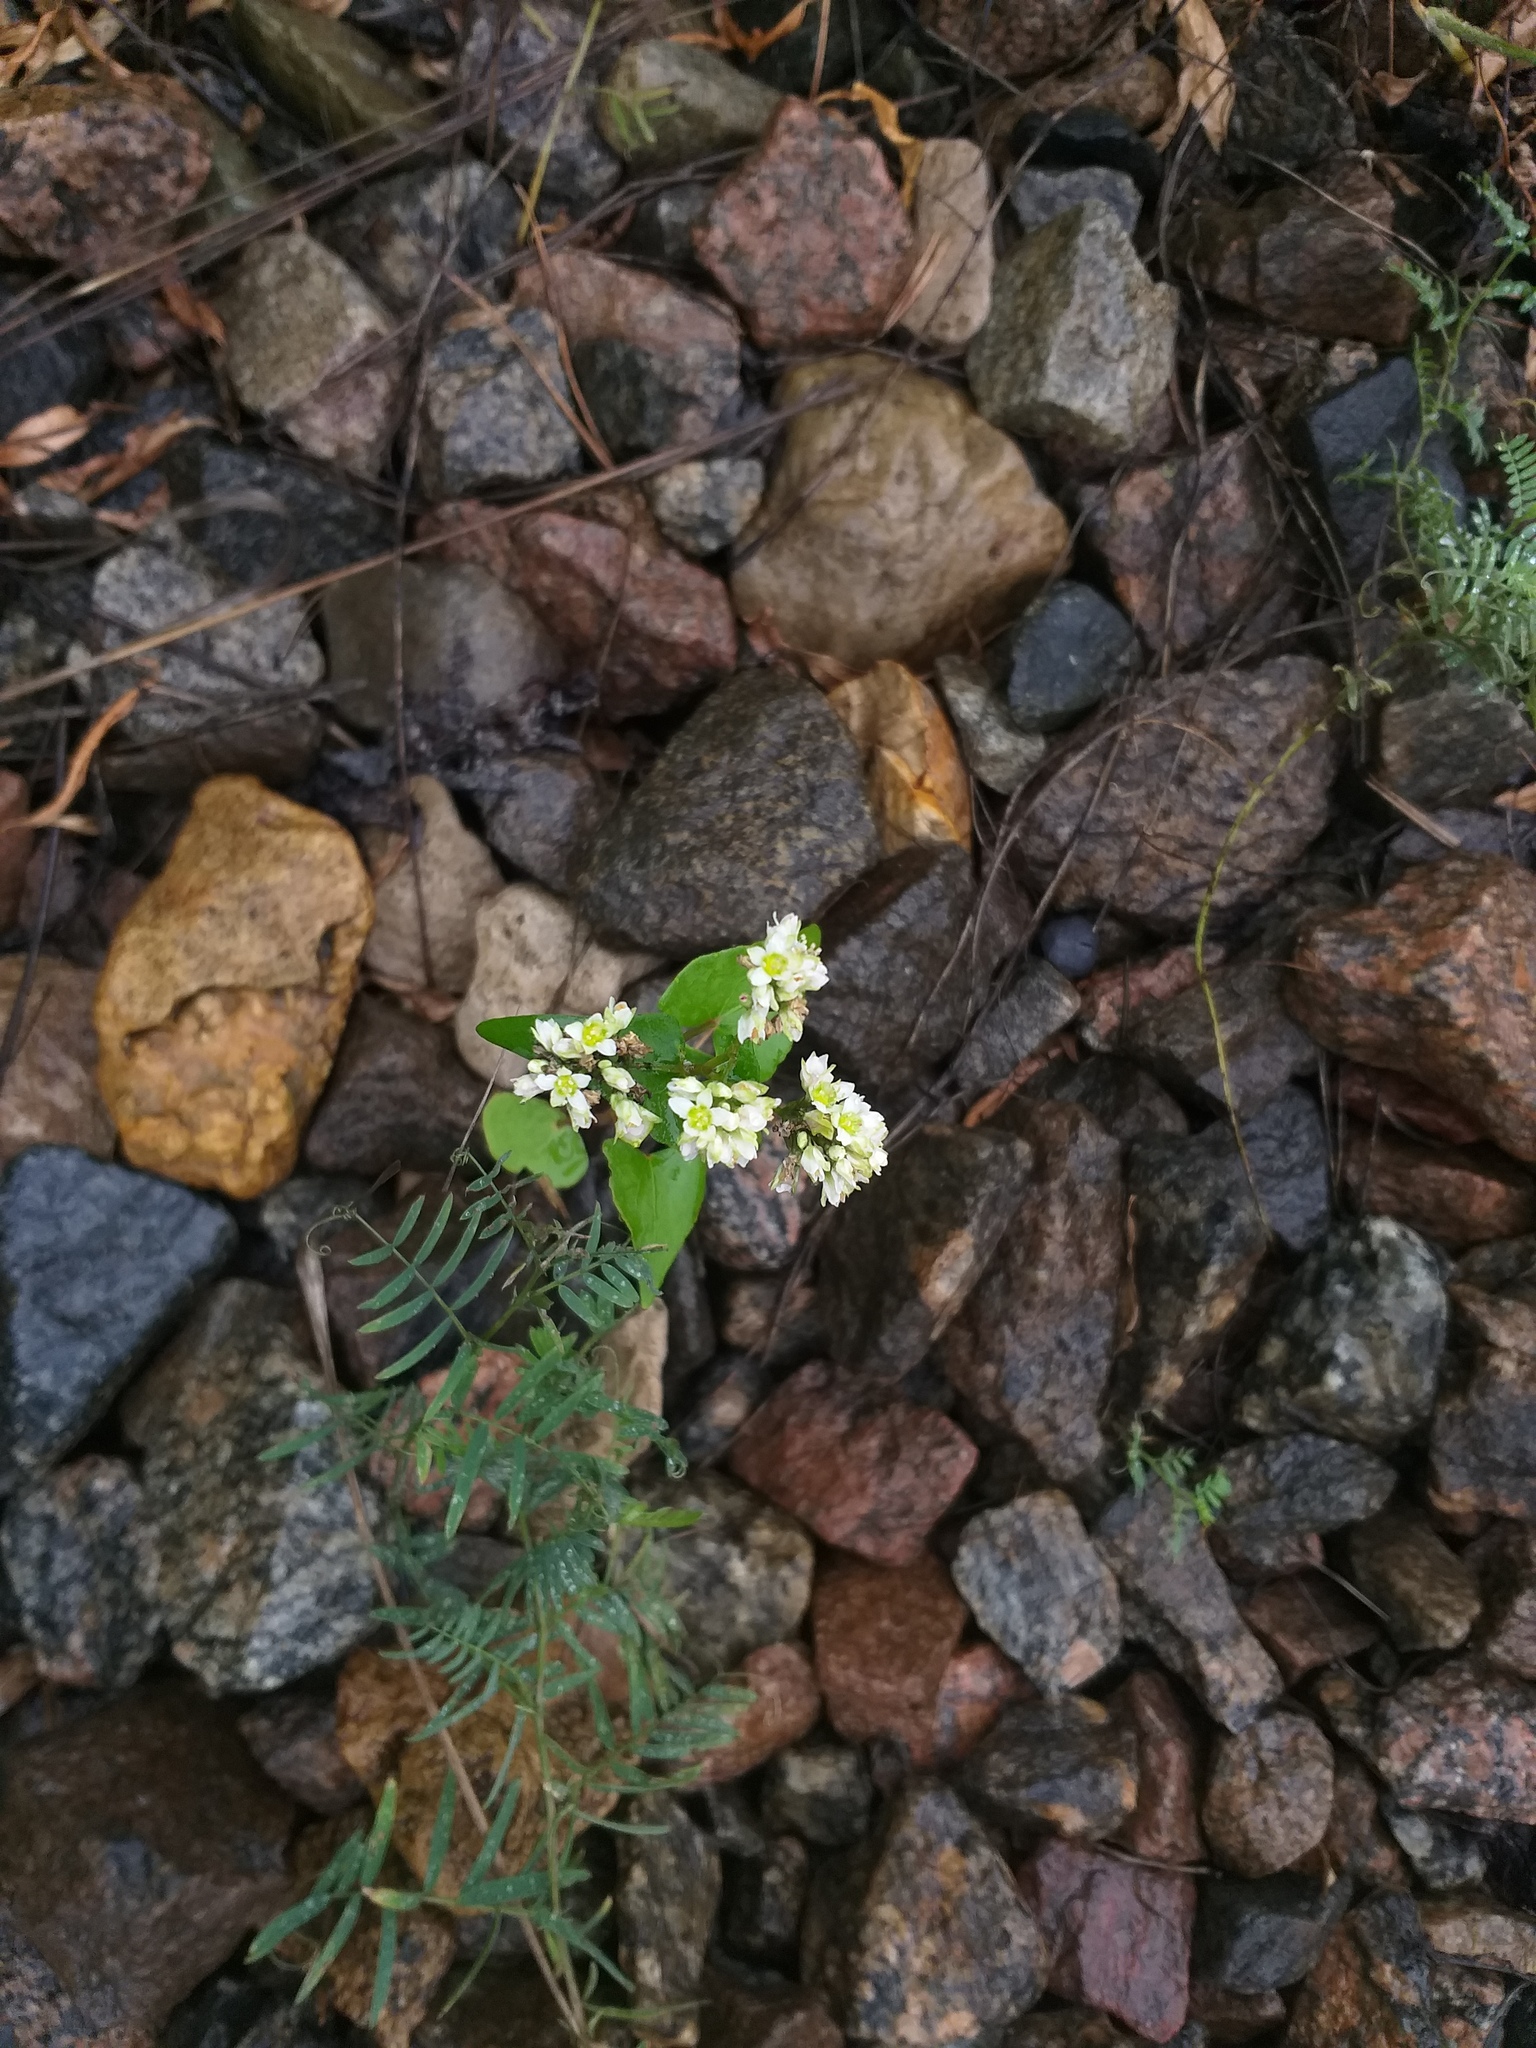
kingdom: Plantae
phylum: Tracheophyta
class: Magnoliopsida
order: Caryophyllales
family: Polygonaceae
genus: Fagopyrum
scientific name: Fagopyrum esculentum
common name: Buckwheat
